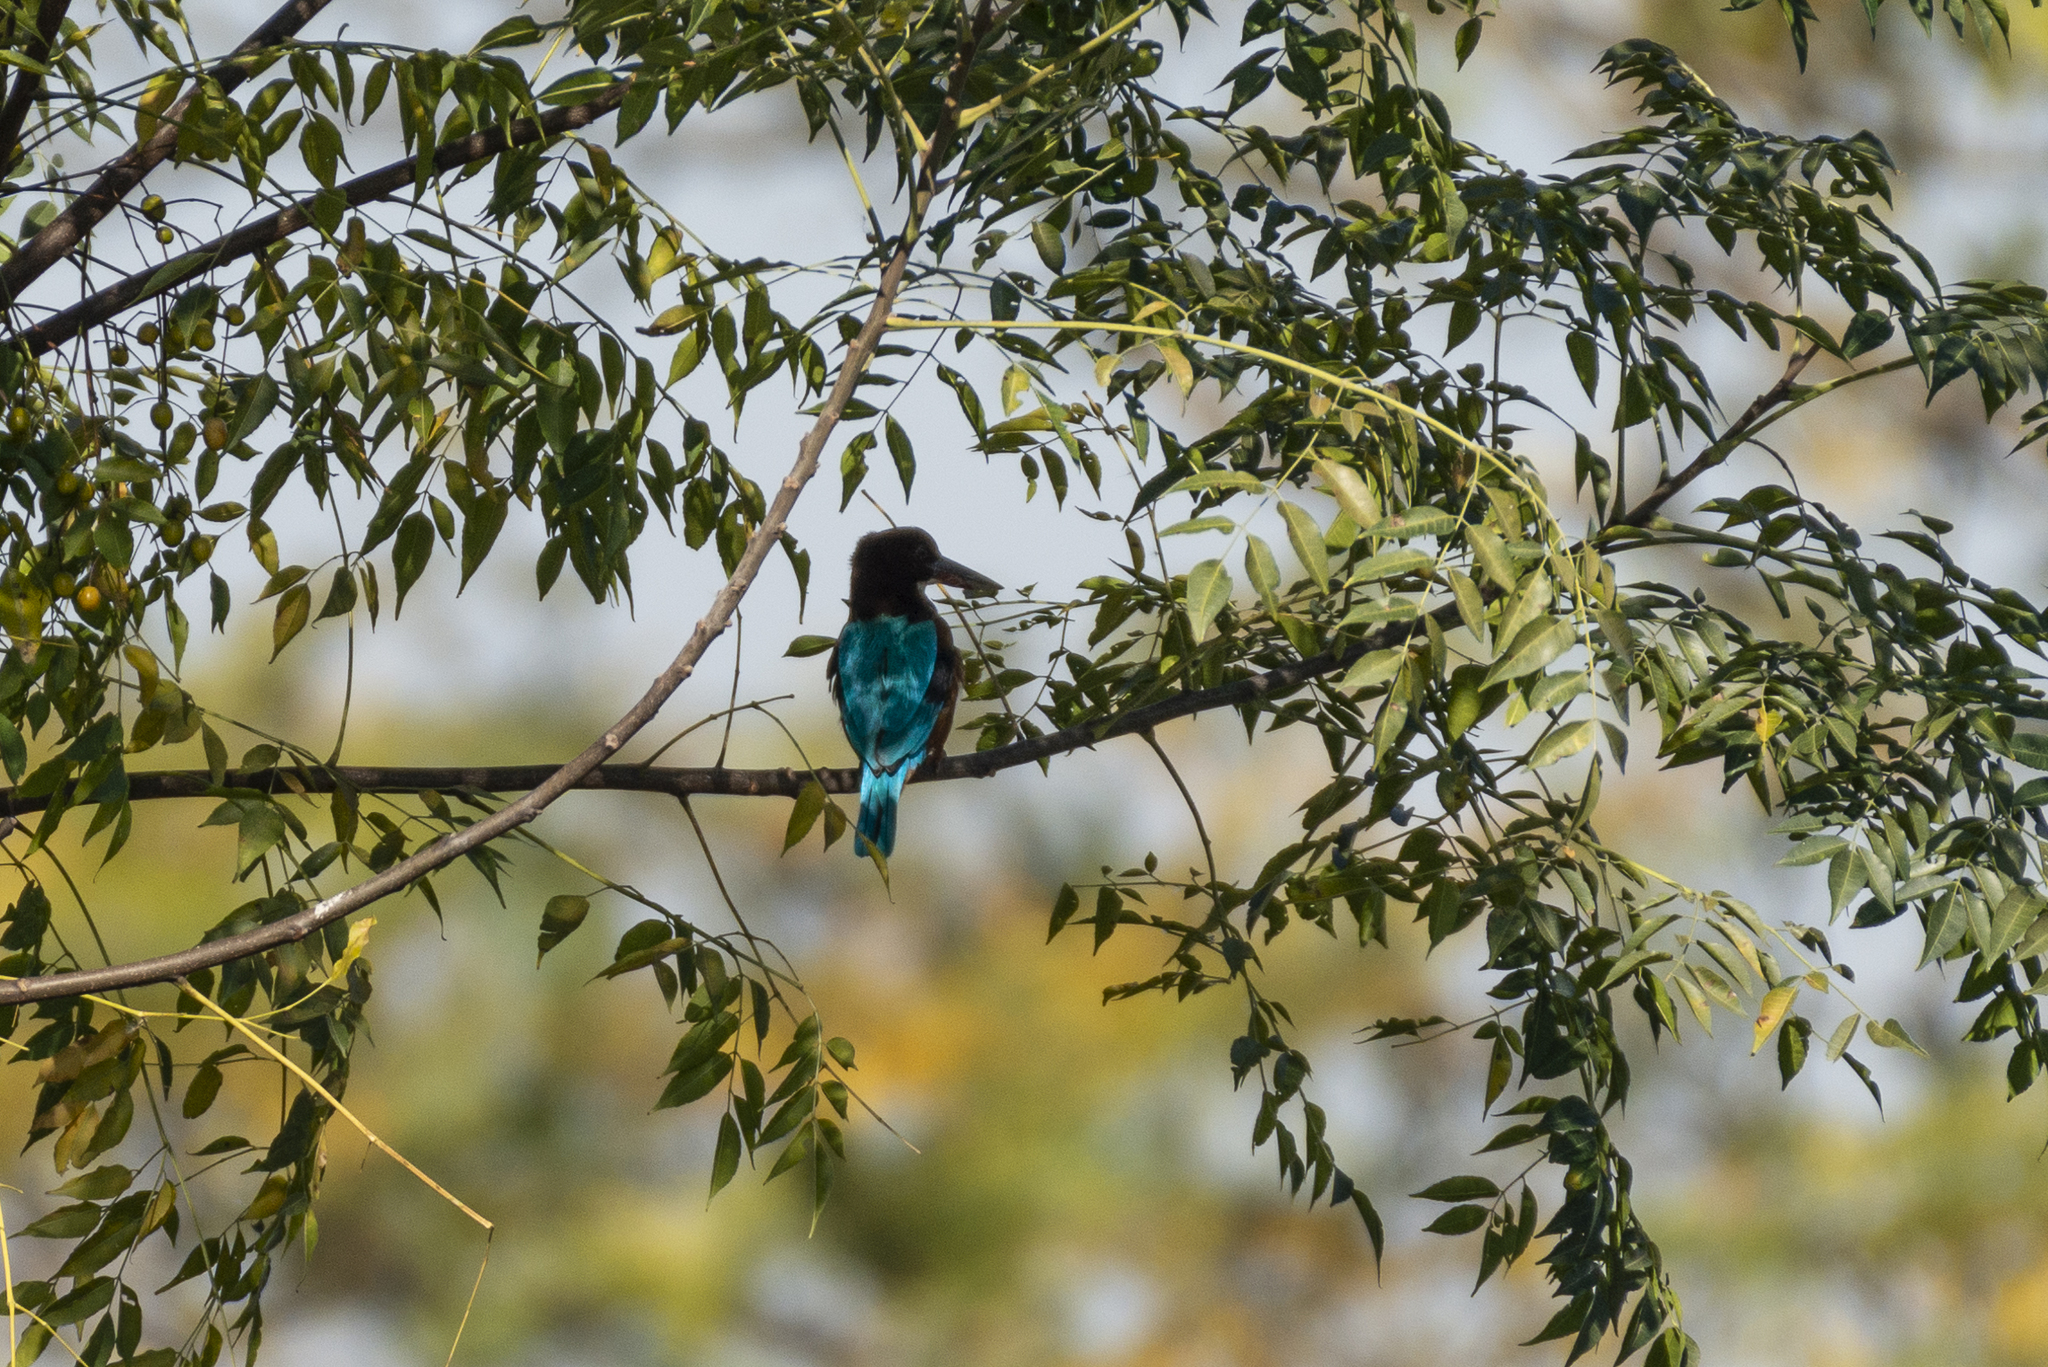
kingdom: Animalia
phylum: Chordata
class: Aves
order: Coraciiformes
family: Alcedinidae
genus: Halcyon
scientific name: Halcyon smyrnensis
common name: White-throated kingfisher
